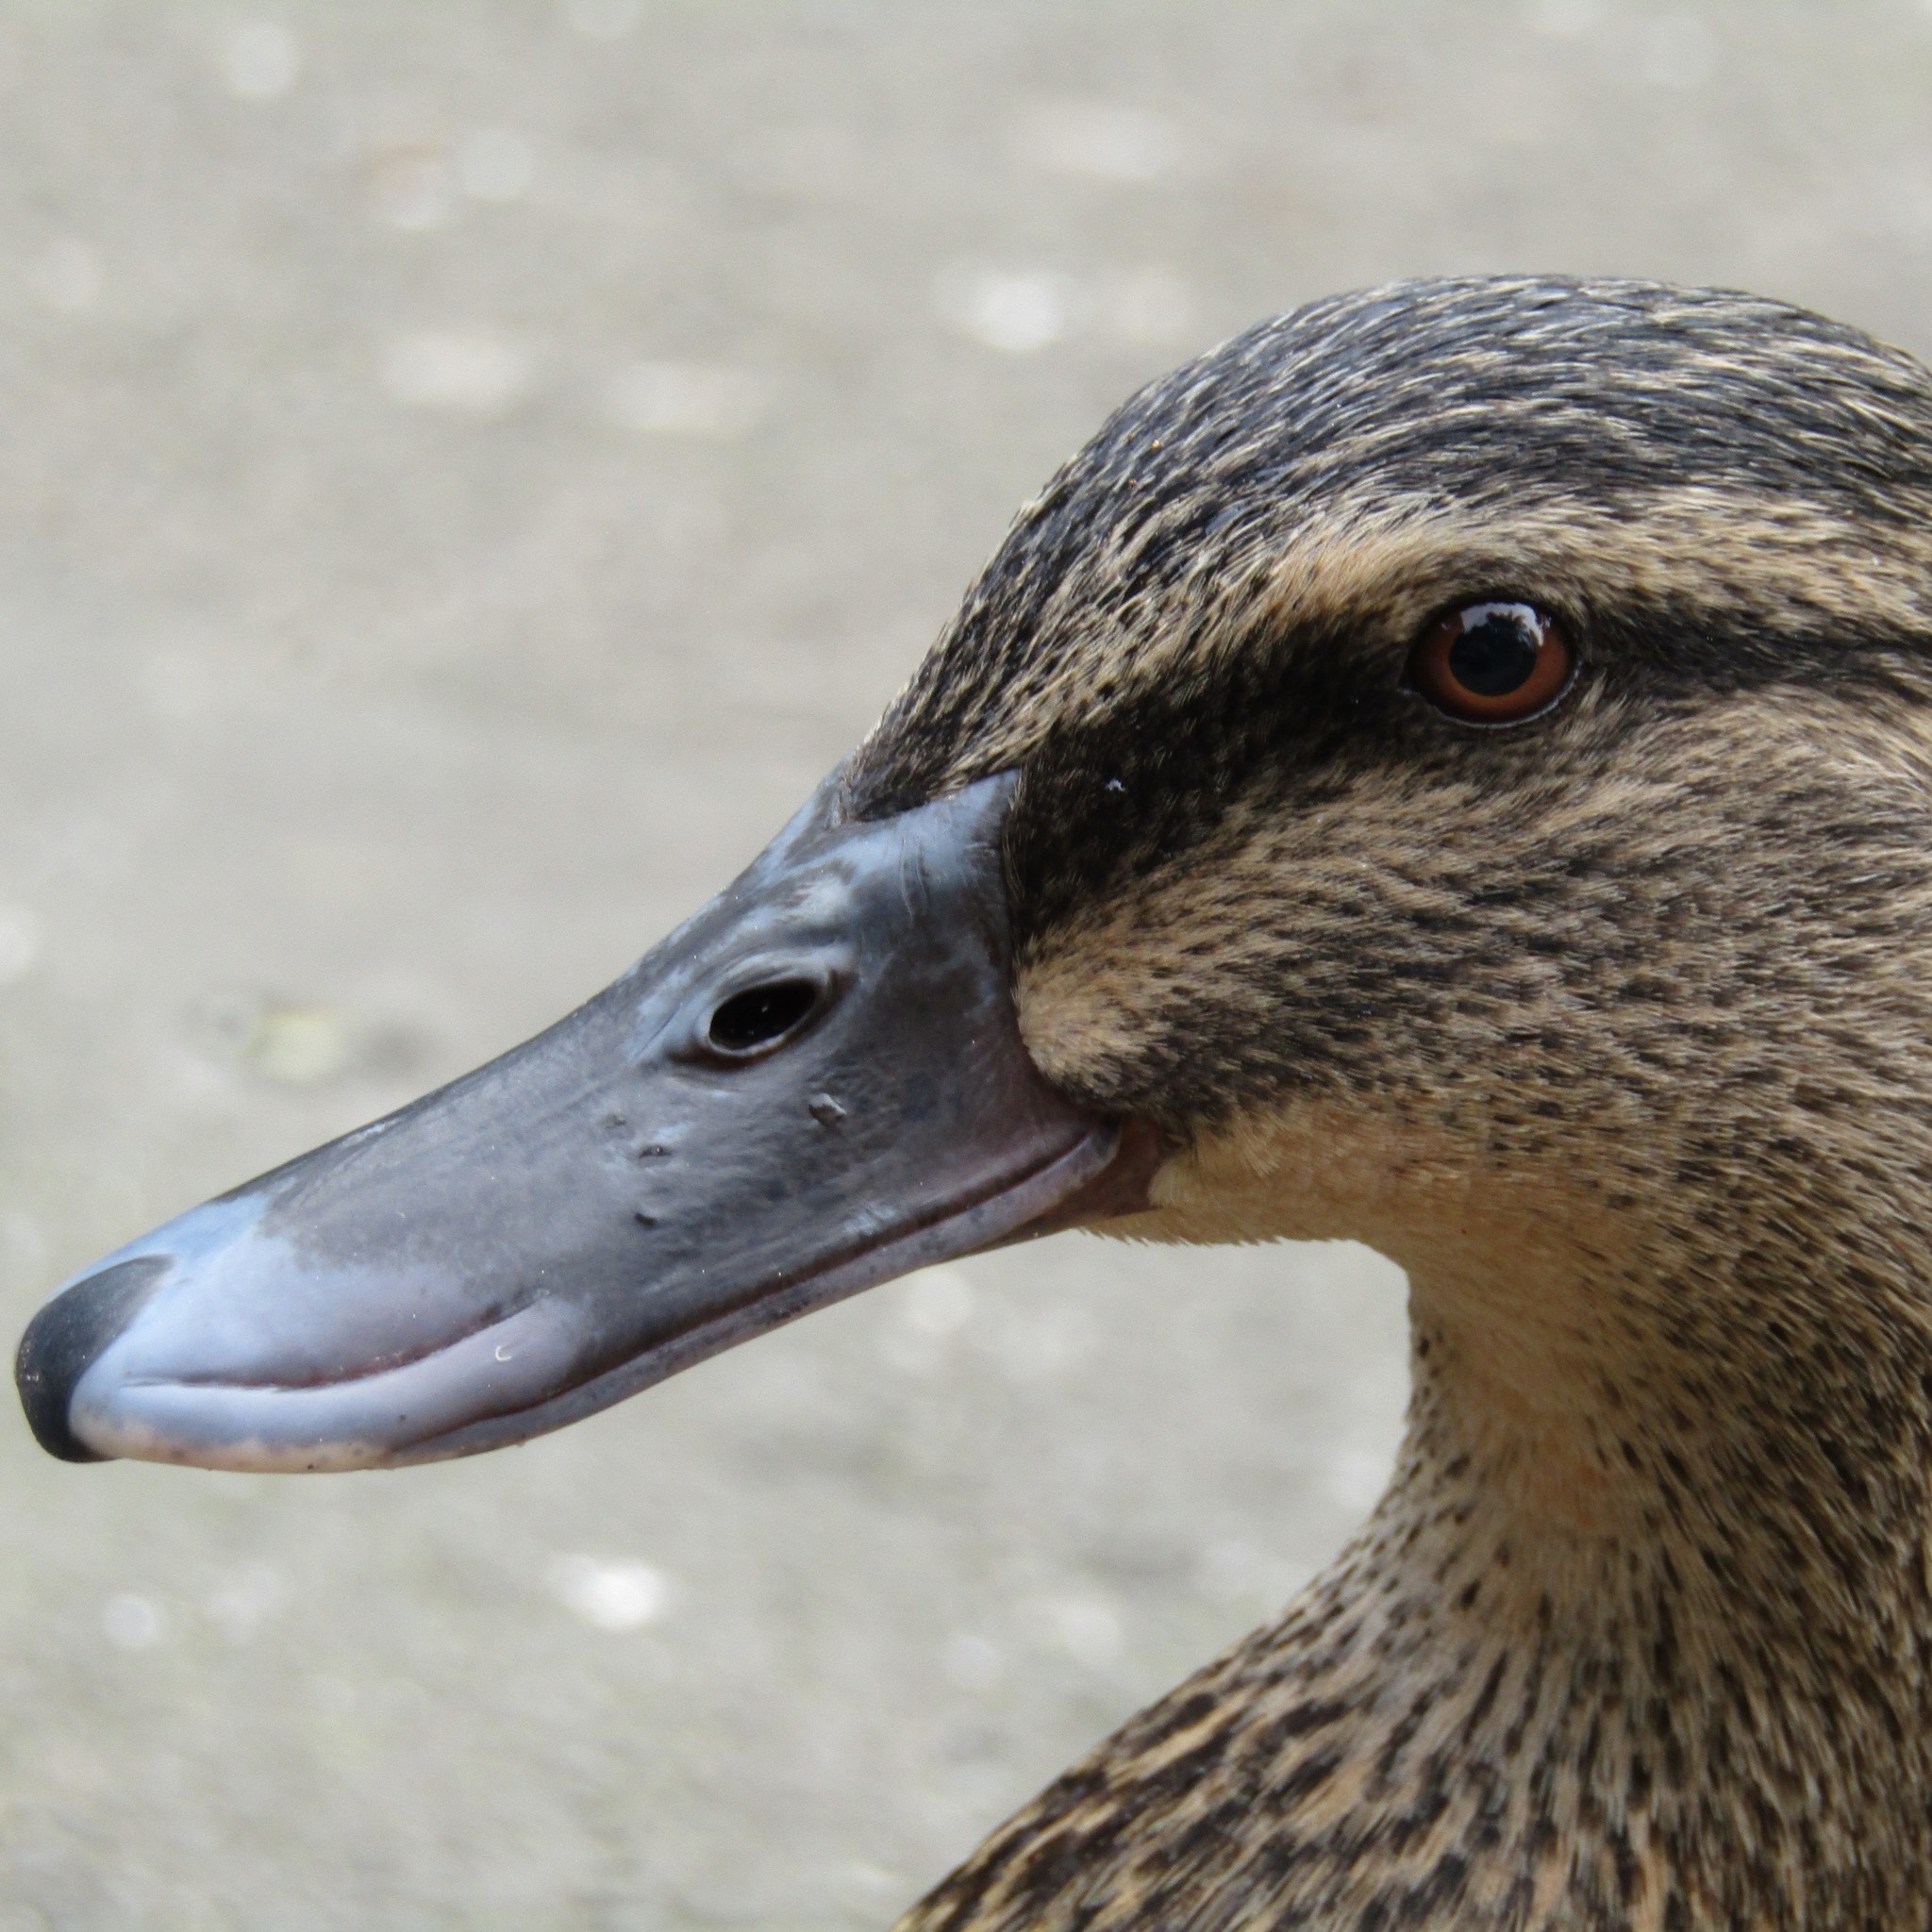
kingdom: Animalia
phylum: Chordata
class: Aves
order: Anseriformes
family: Anatidae
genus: Anas
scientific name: Anas
